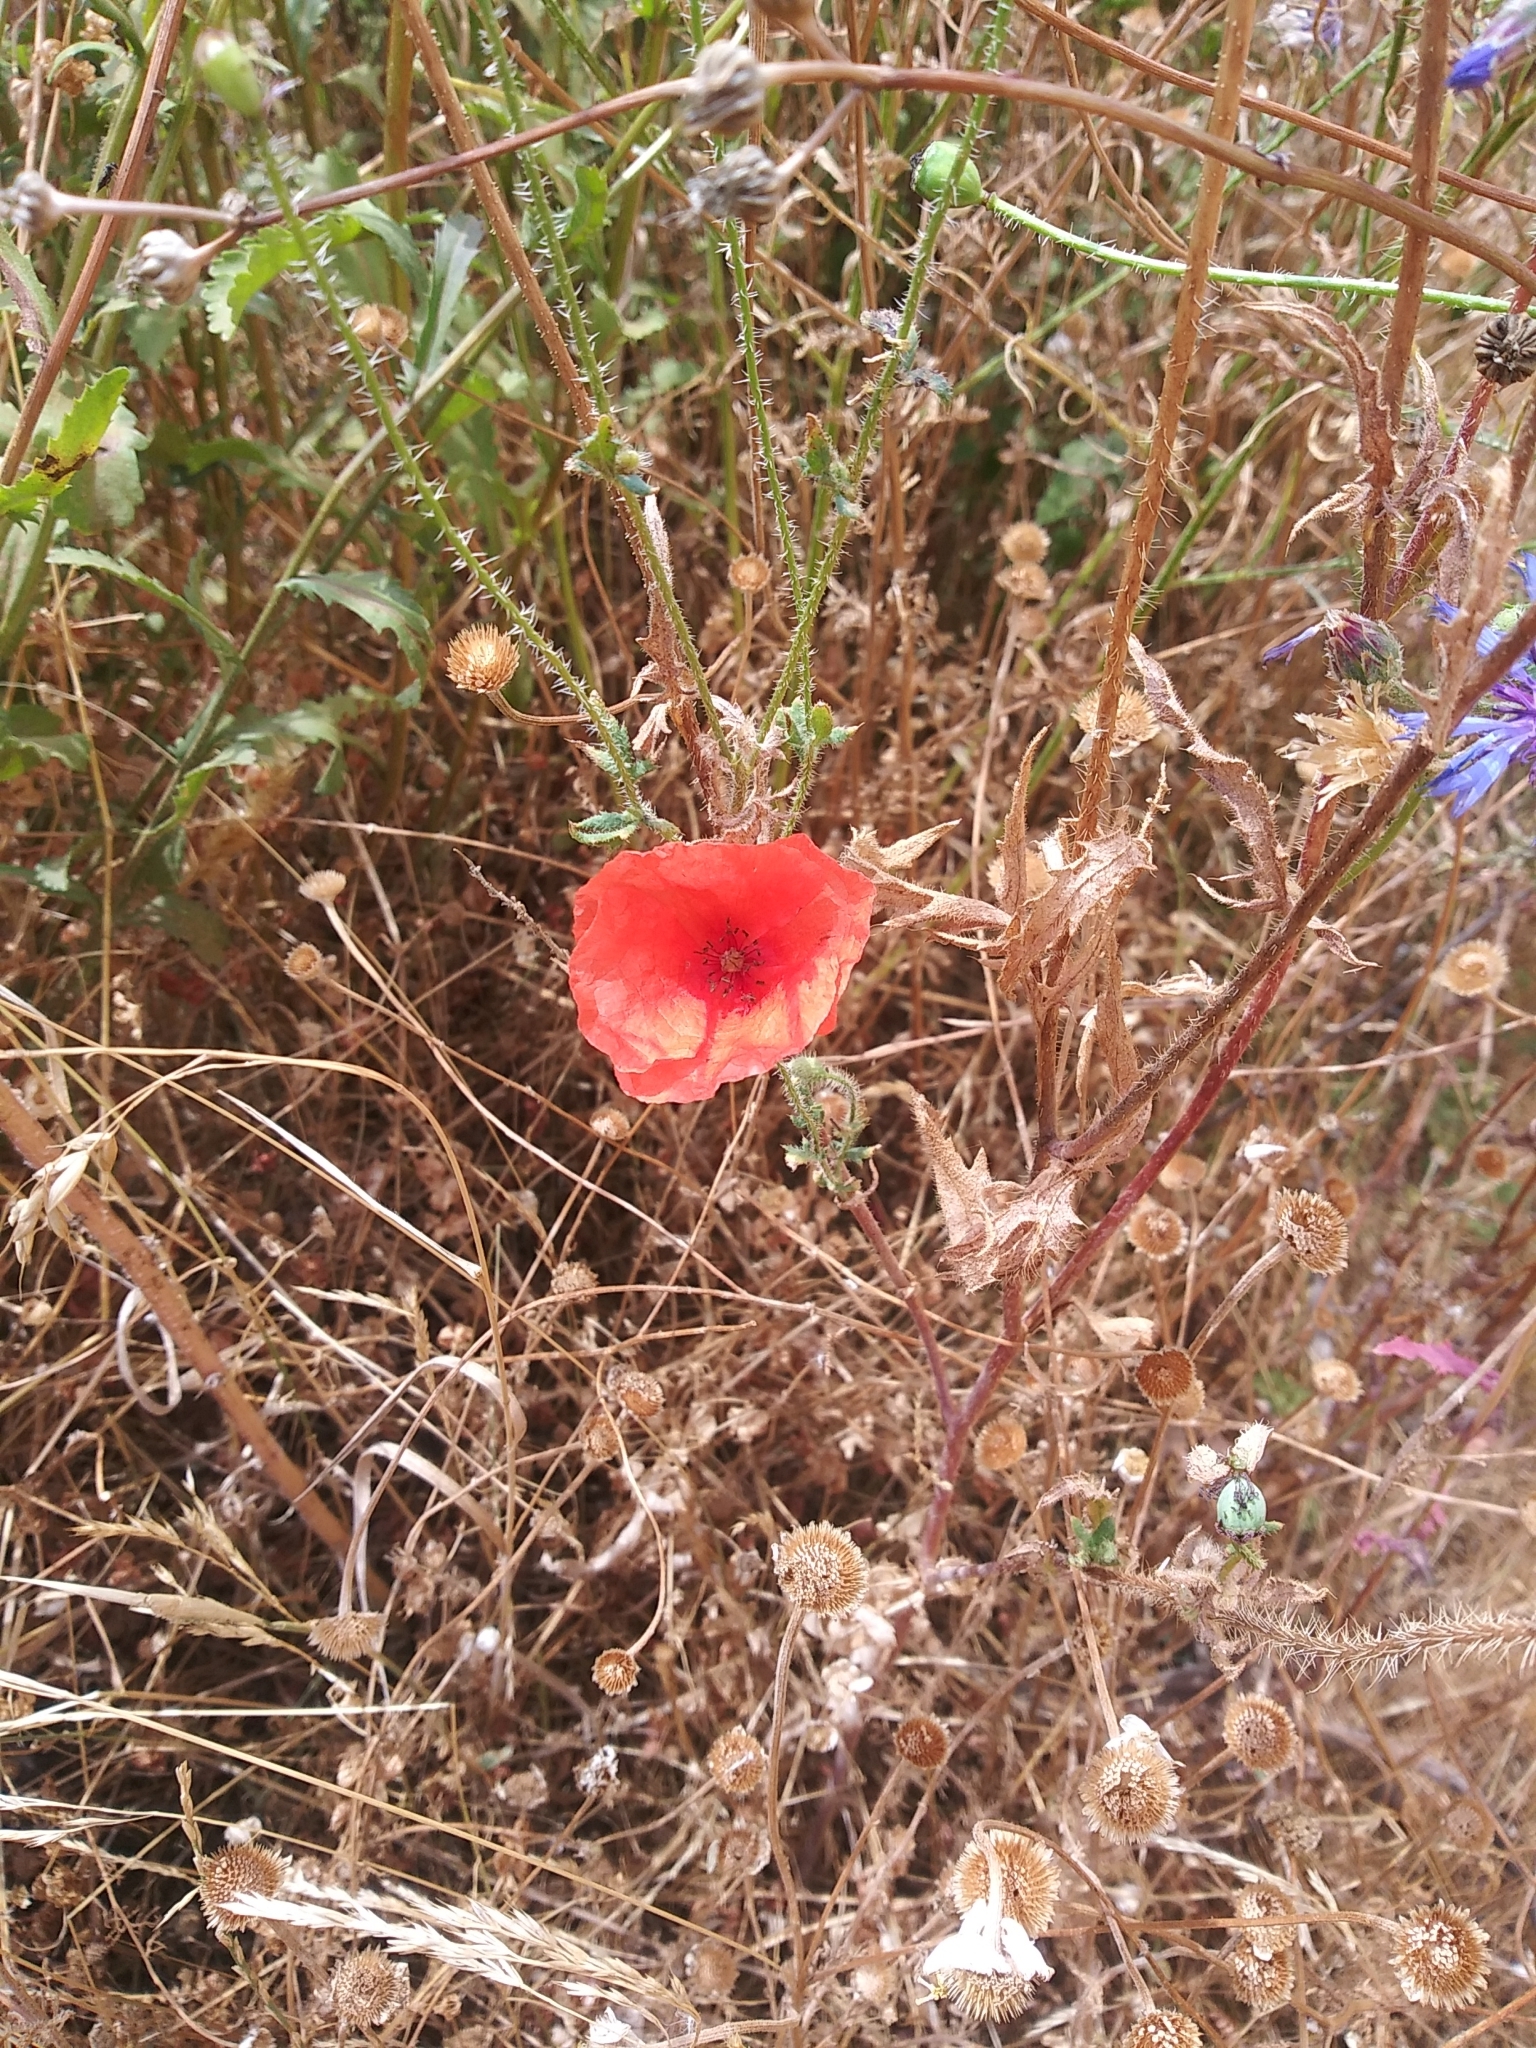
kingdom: Plantae
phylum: Tracheophyta
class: Magnoliopsida
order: Ranunculales
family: Papaveraceae
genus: Papaver
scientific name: Papaver rhoeas
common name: Corn poppy
